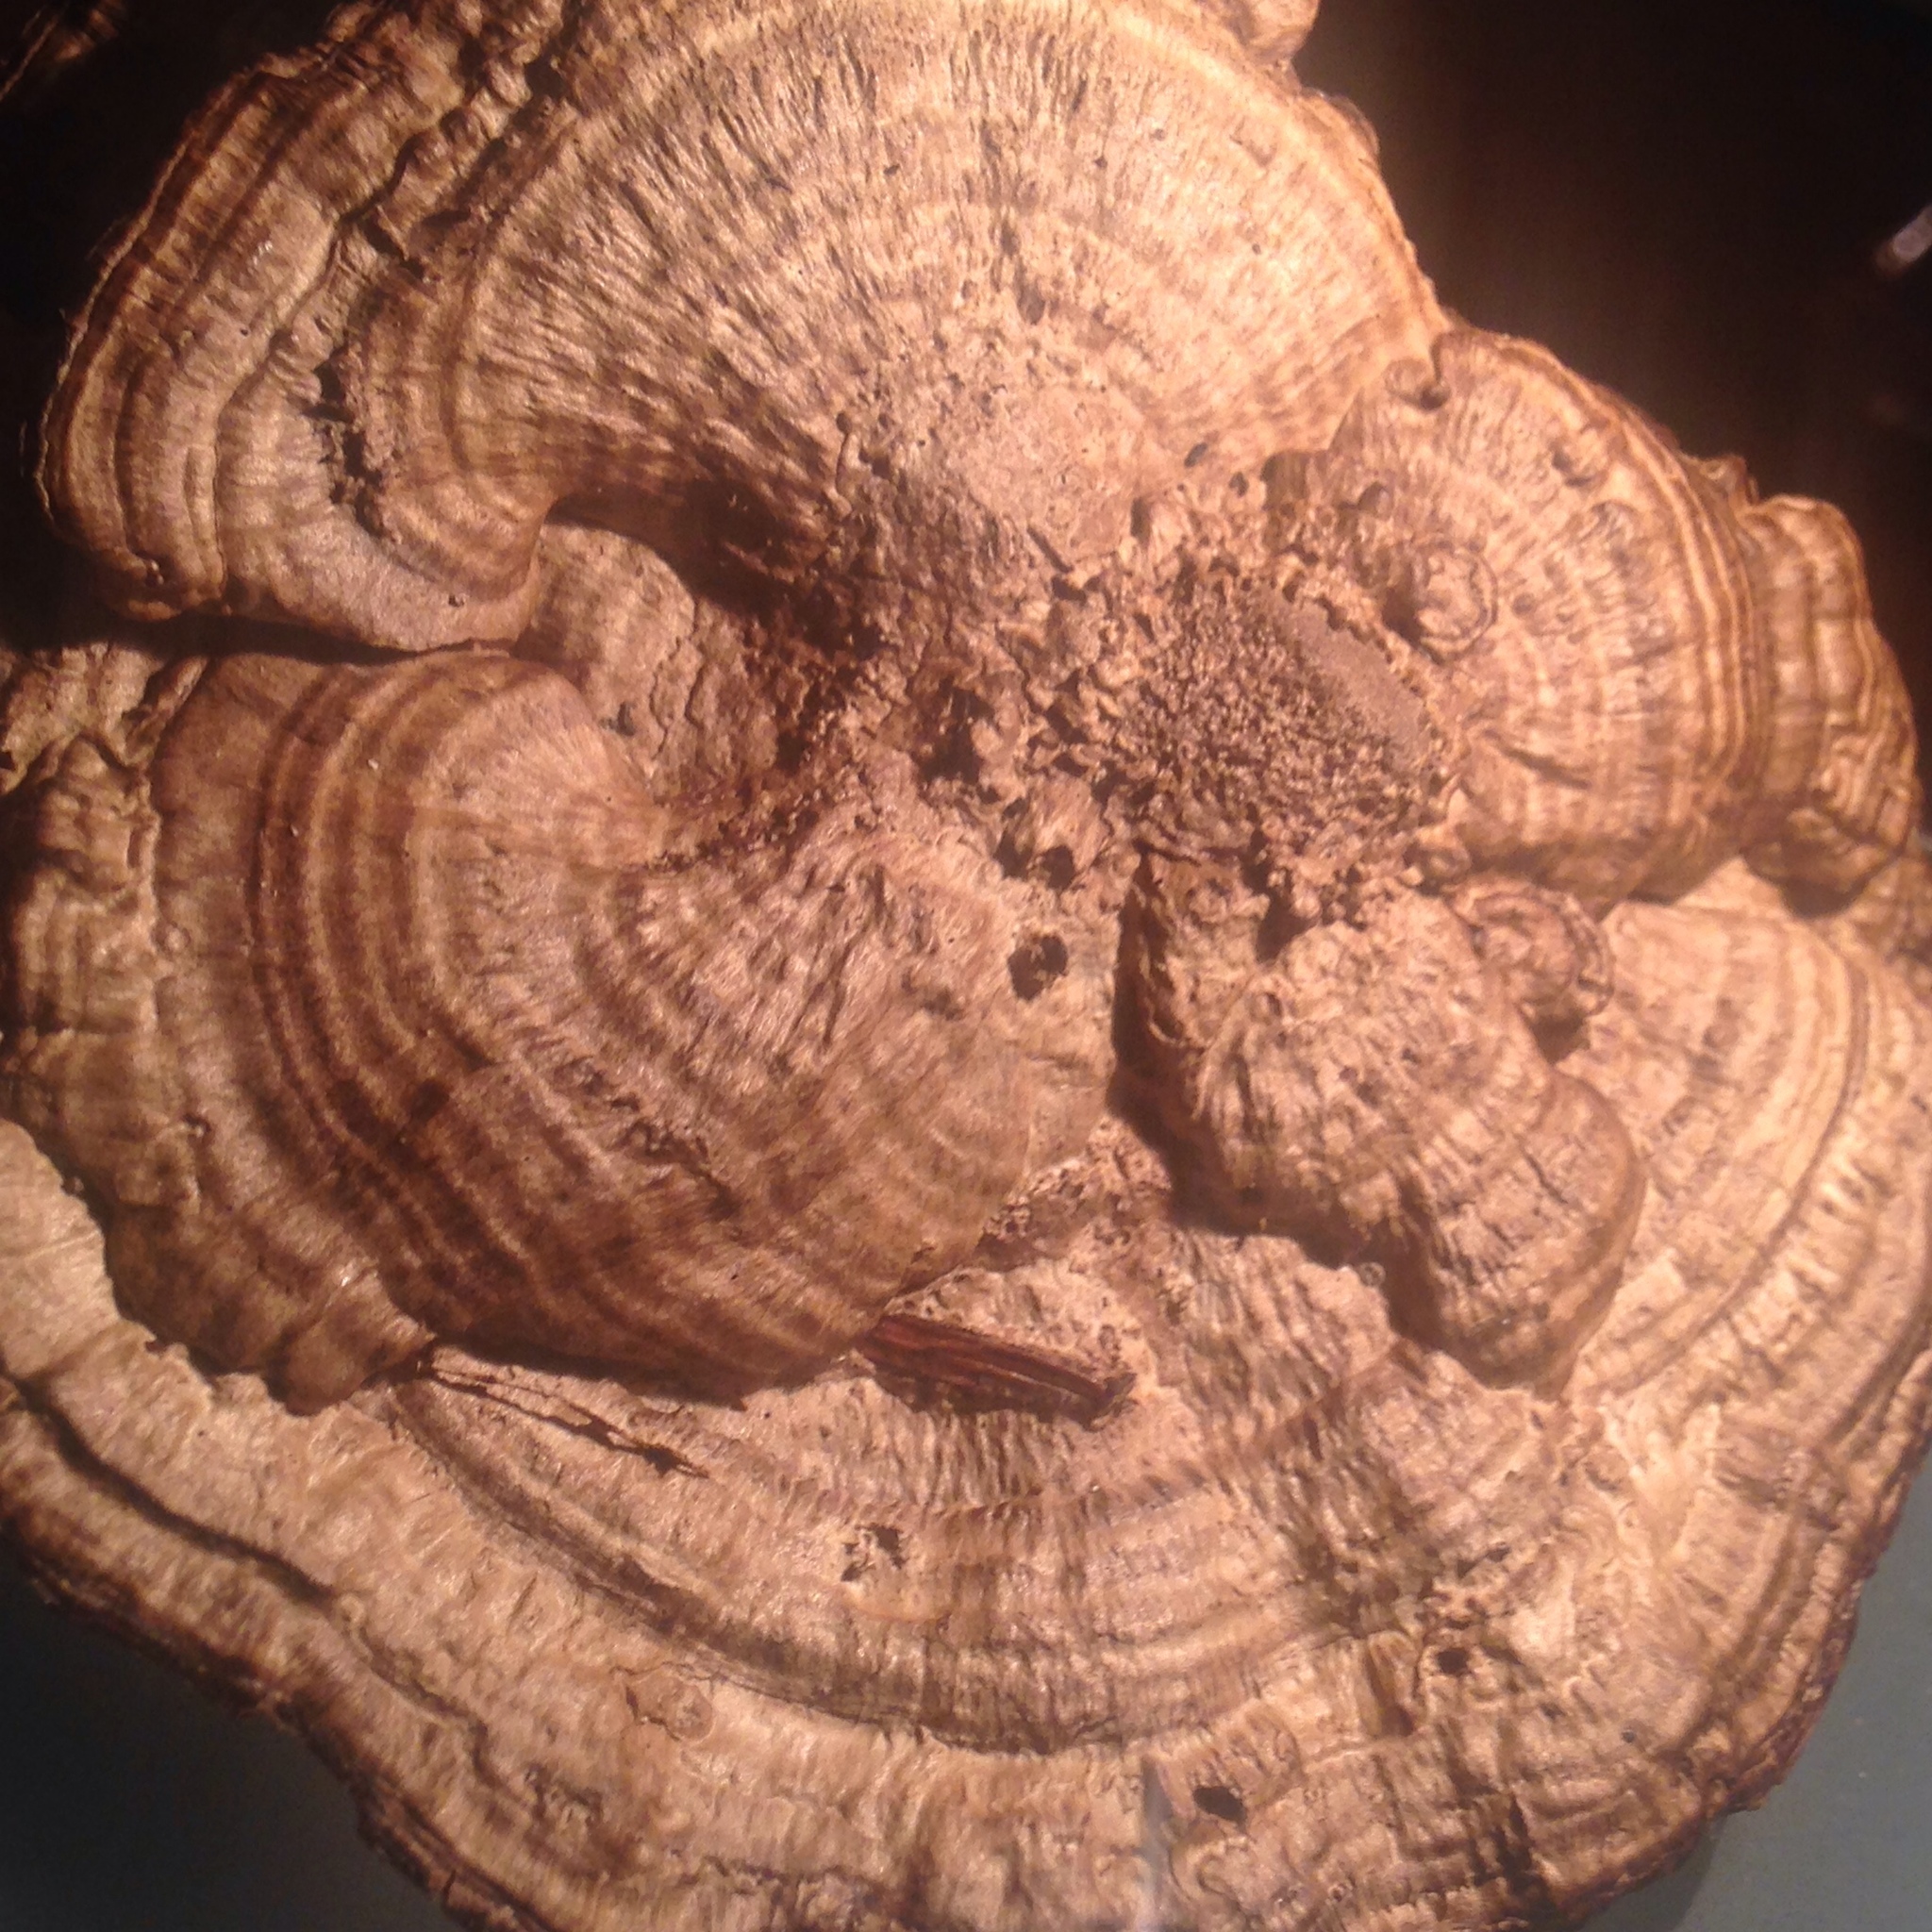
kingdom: Fungi
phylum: Basidiomycota
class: Agaricomycetes
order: Polyporales
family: Polyporaceae
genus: Daedaleopsis
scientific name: Daedaleopsis confragosa
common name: Blushing bracket
